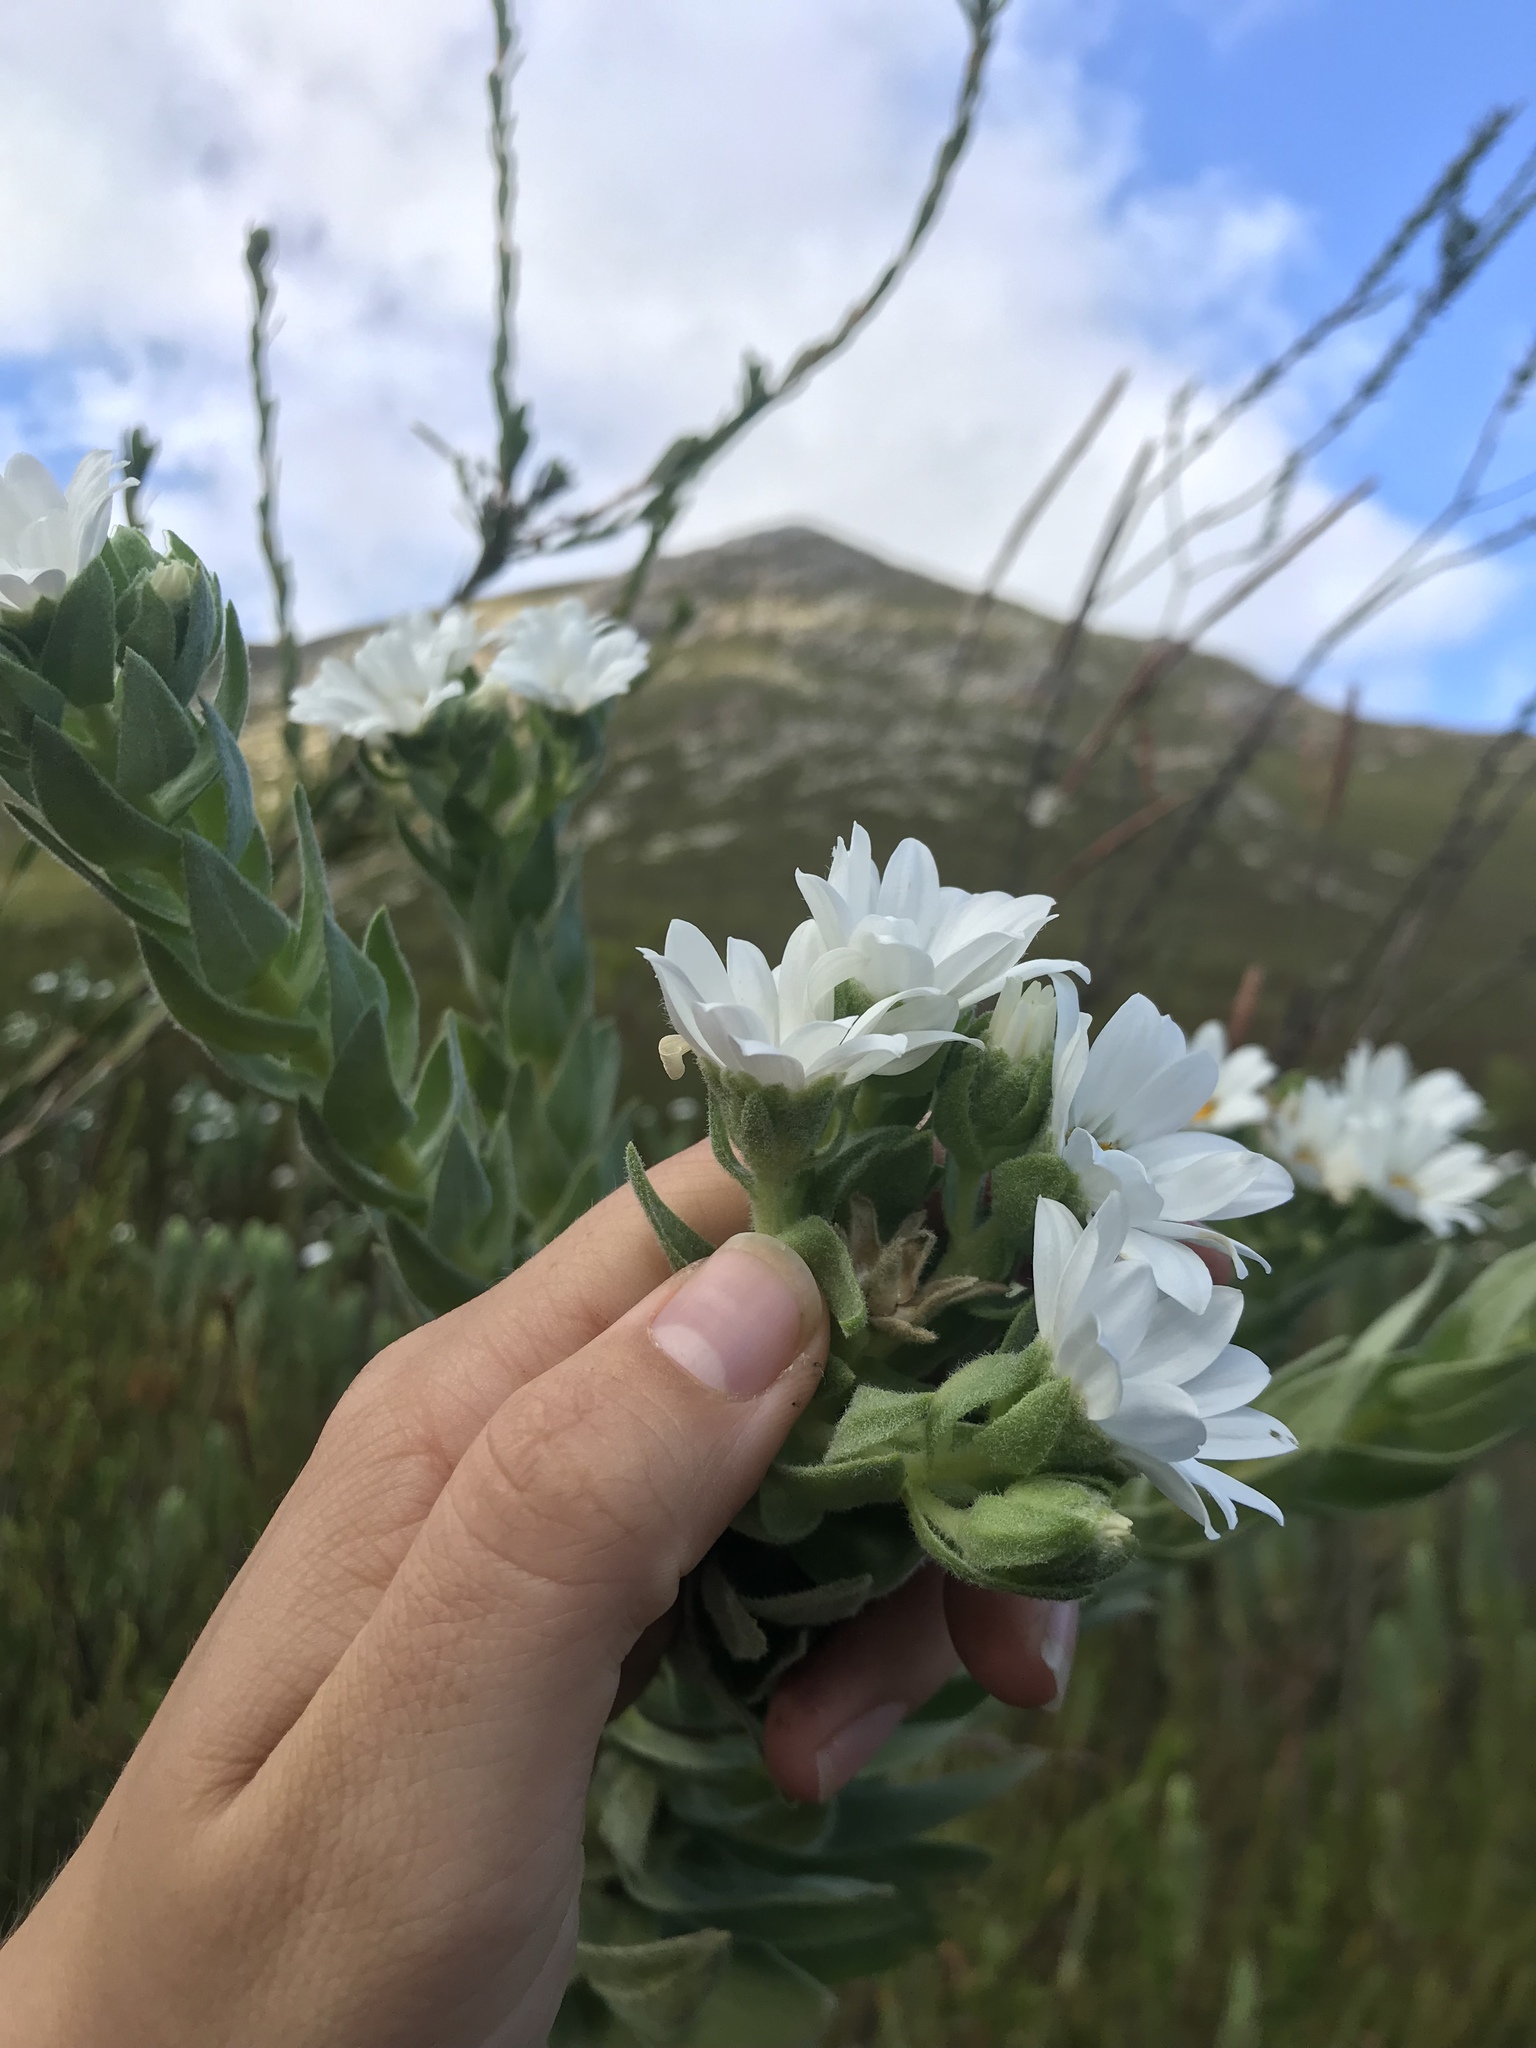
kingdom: Plantae
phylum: Tracheophyta
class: Magnoliopsida
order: Asterales
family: Asteraceae
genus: Osmitopsis
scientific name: Osmitopsis asteriscoides
